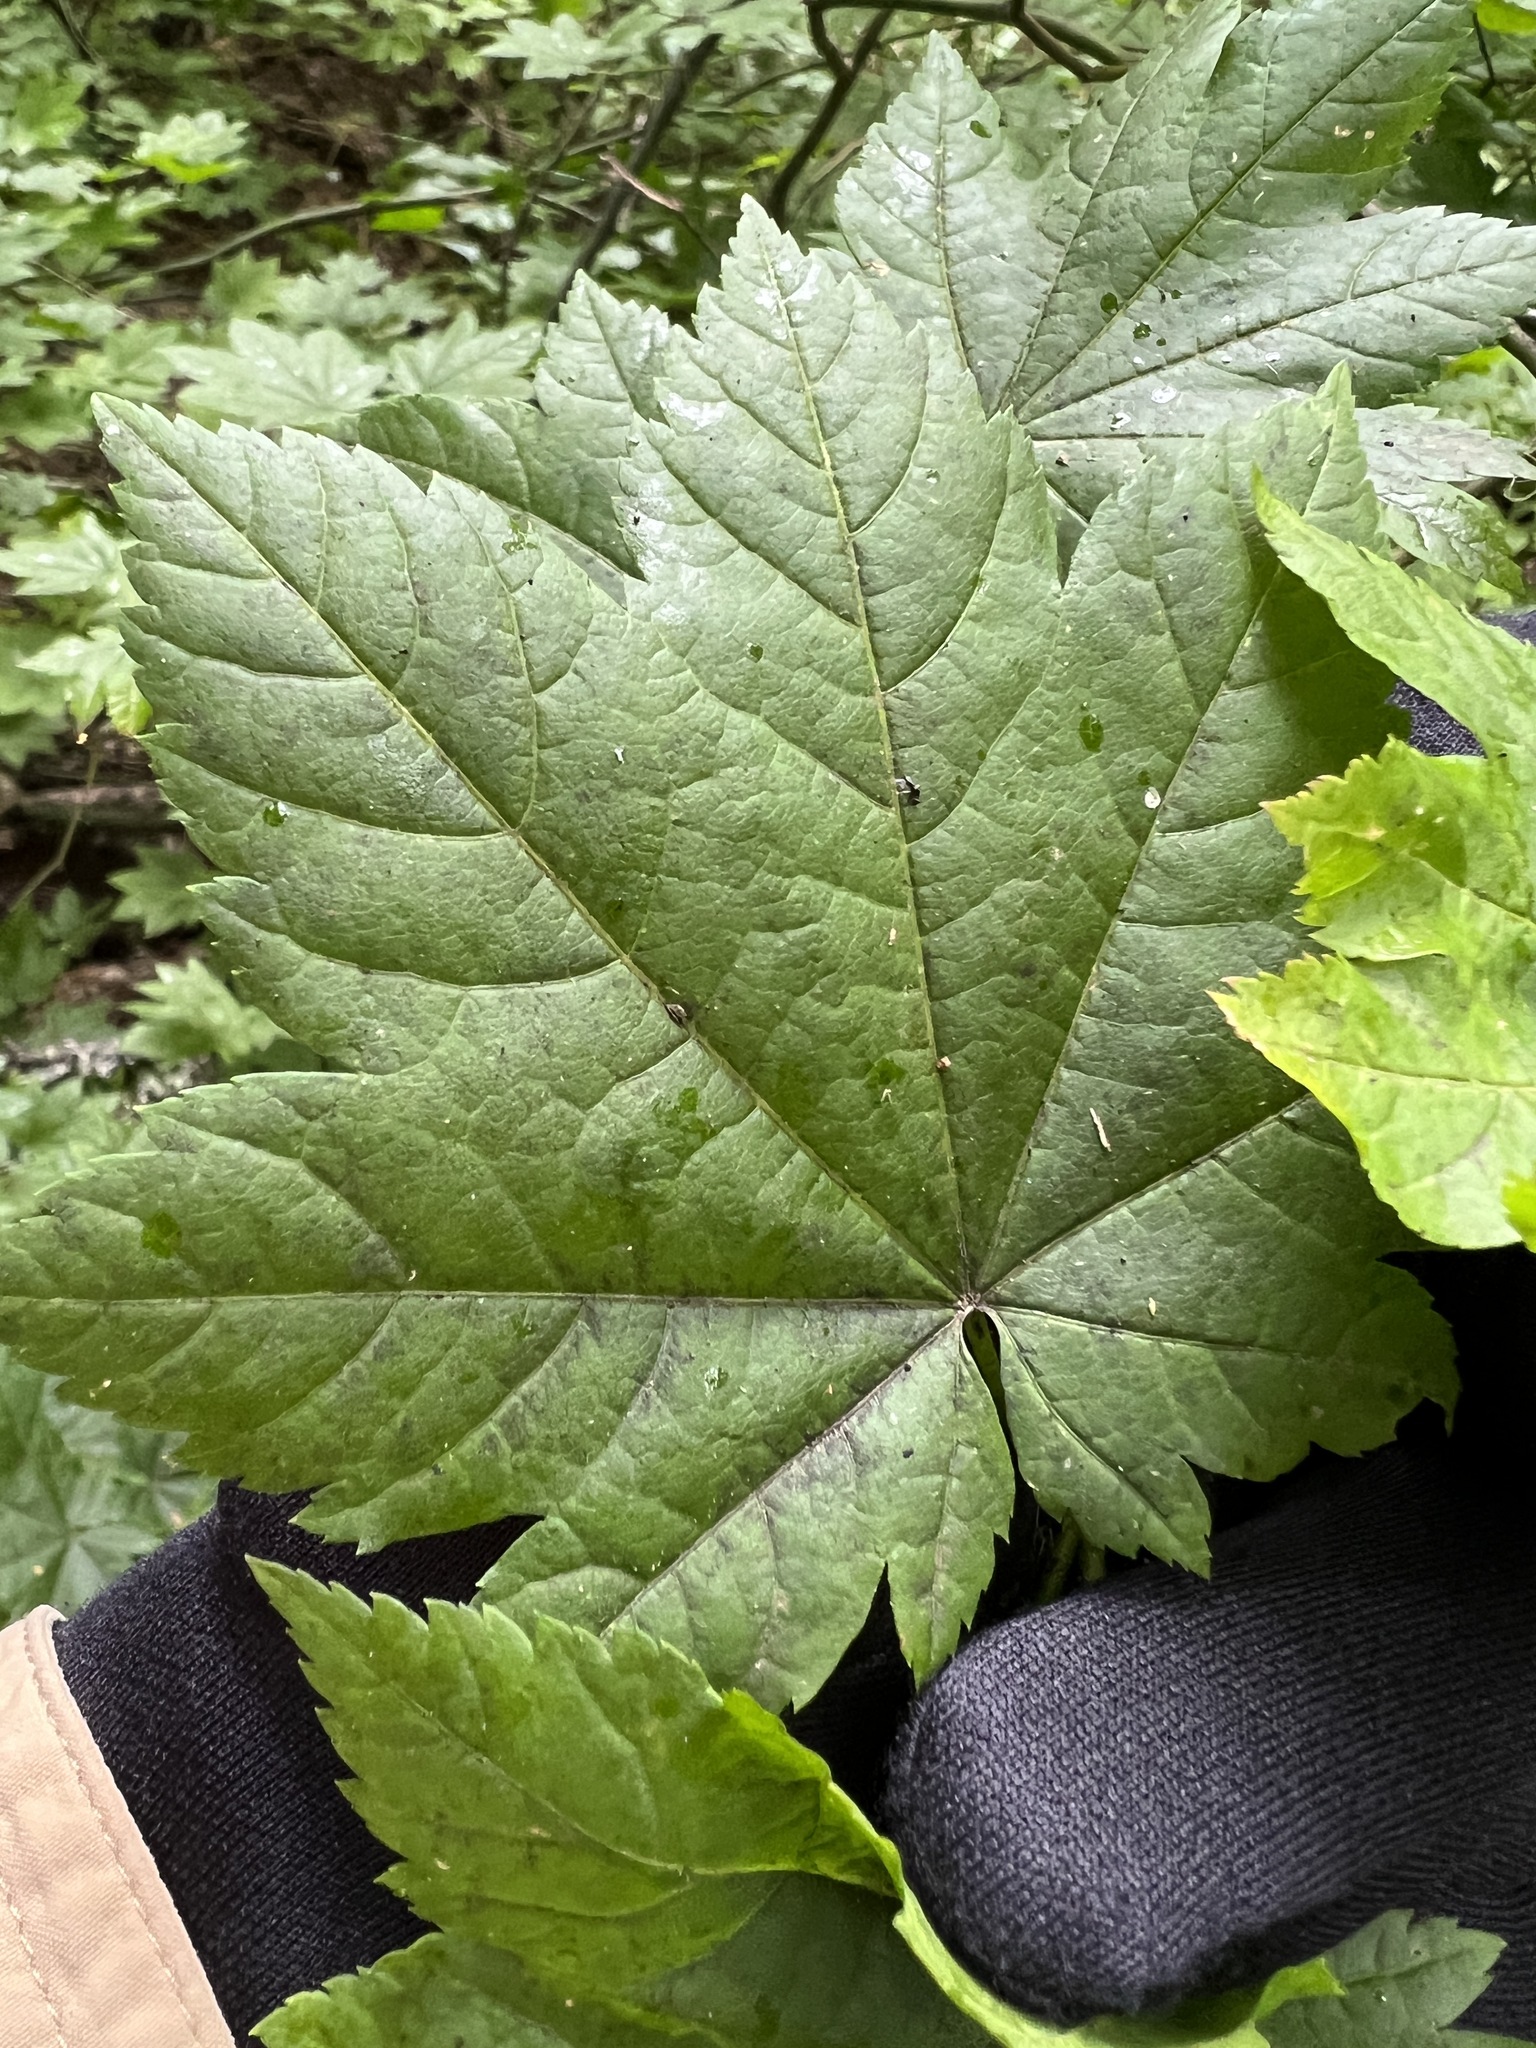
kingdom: Plantae
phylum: Tracheophyta
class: Magnoliopsida
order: Sapindales
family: Sapindaceae
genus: Acer
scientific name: Acer circinatum
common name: Vine maple
